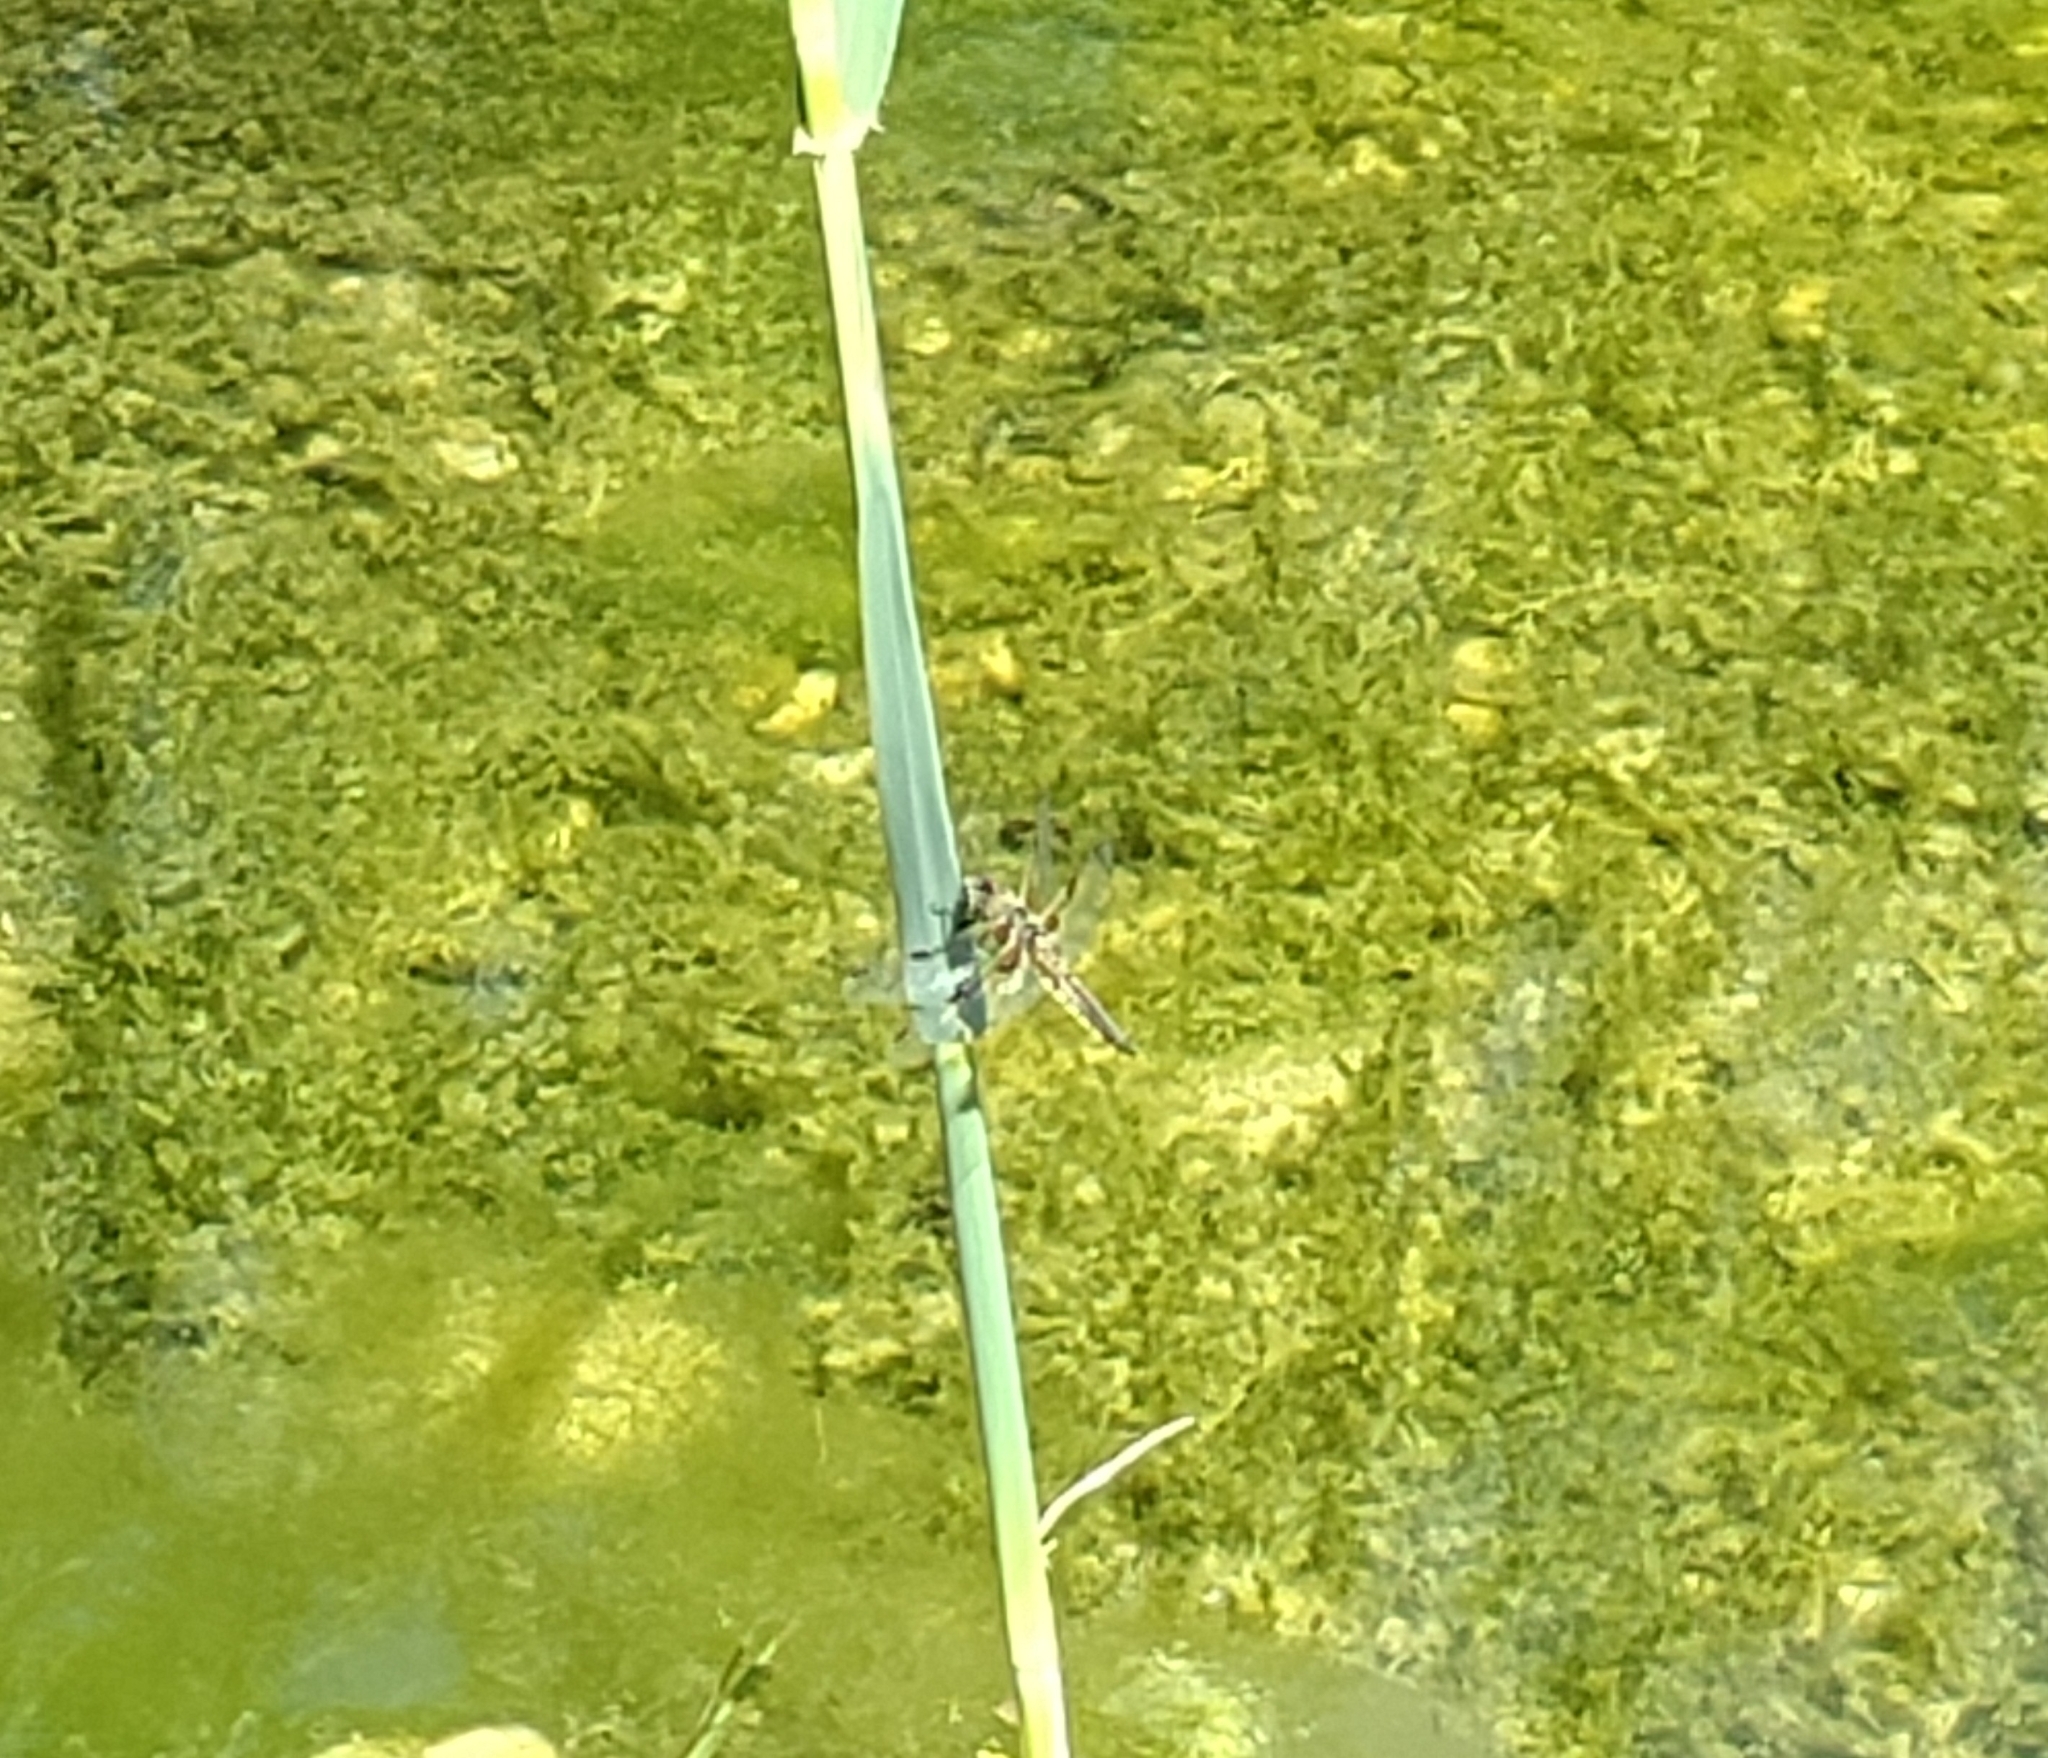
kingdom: Animalia
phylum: Arthropoda
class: Insecta
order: Odonata
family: Libellulidae
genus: Libellula
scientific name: Libellula quadrimaculata
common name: Four-spotted chaser
